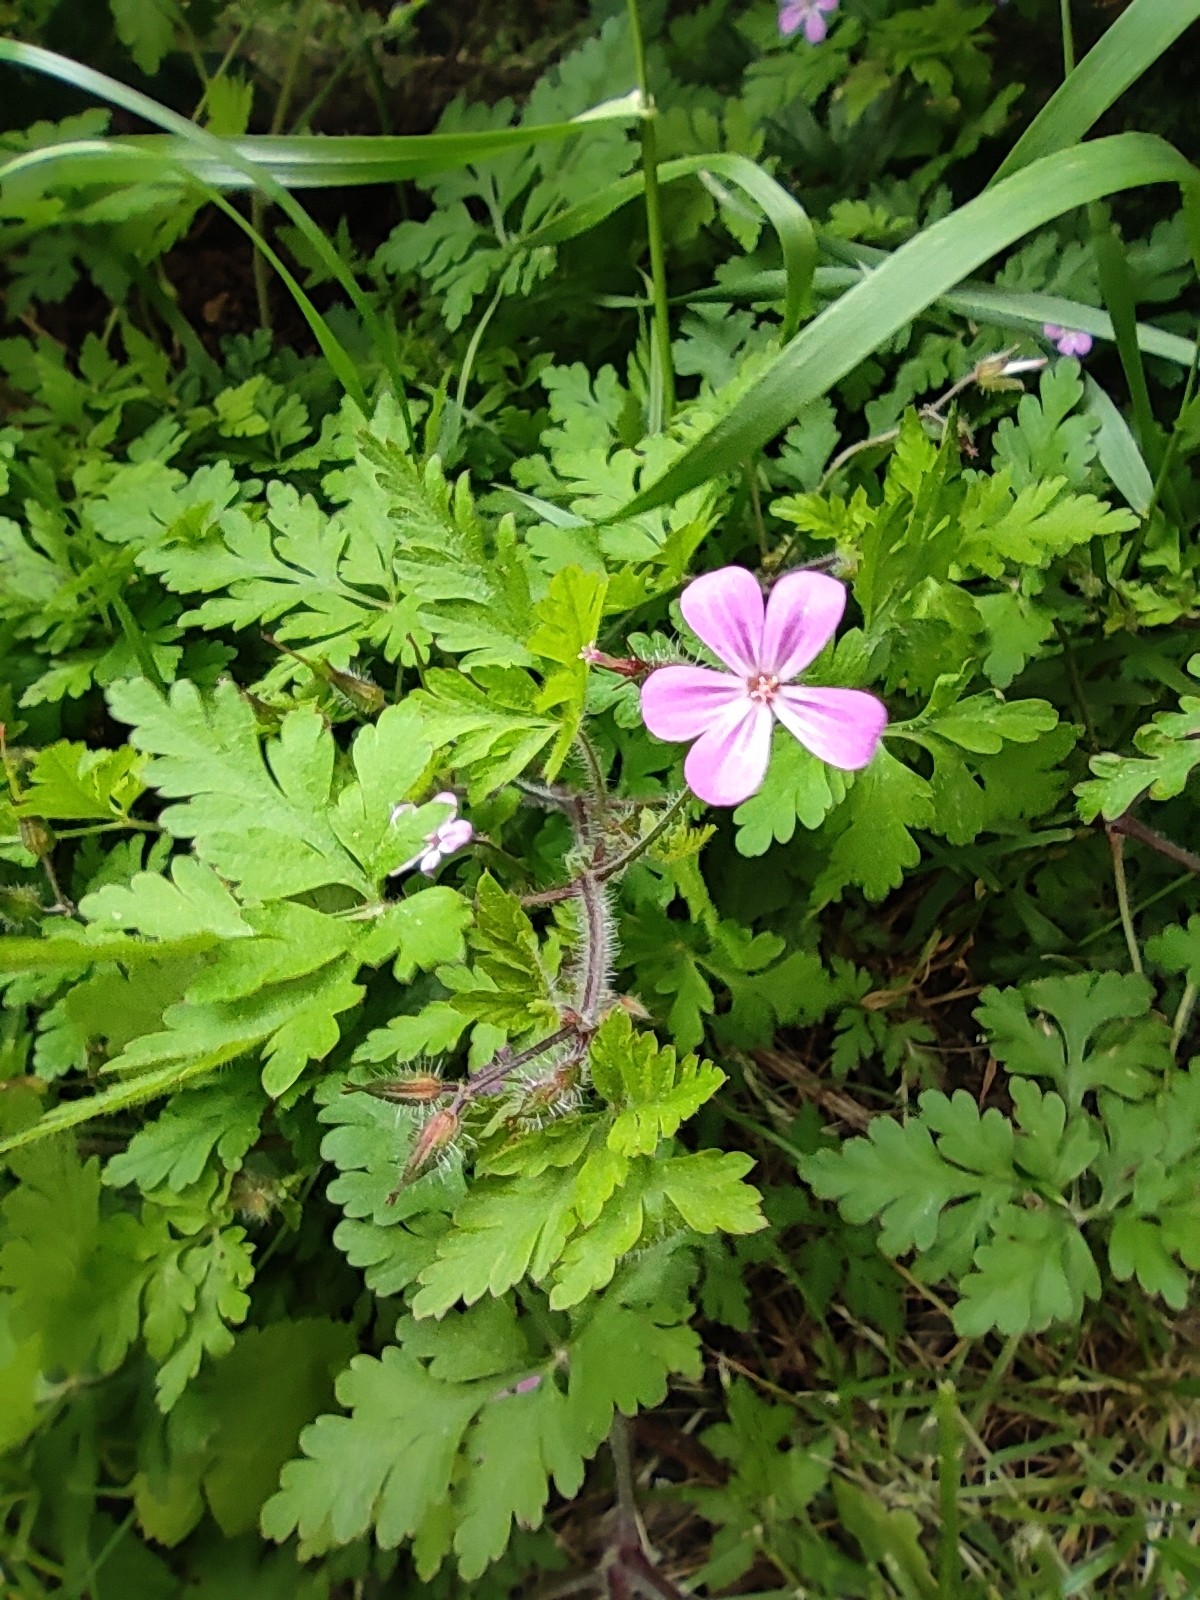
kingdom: Plantae
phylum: Tracheophyta
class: Magnoliopsida
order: Geraniales
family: Geraniaceae
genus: Geranium
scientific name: Geranium robertianum
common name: Herb-robert
